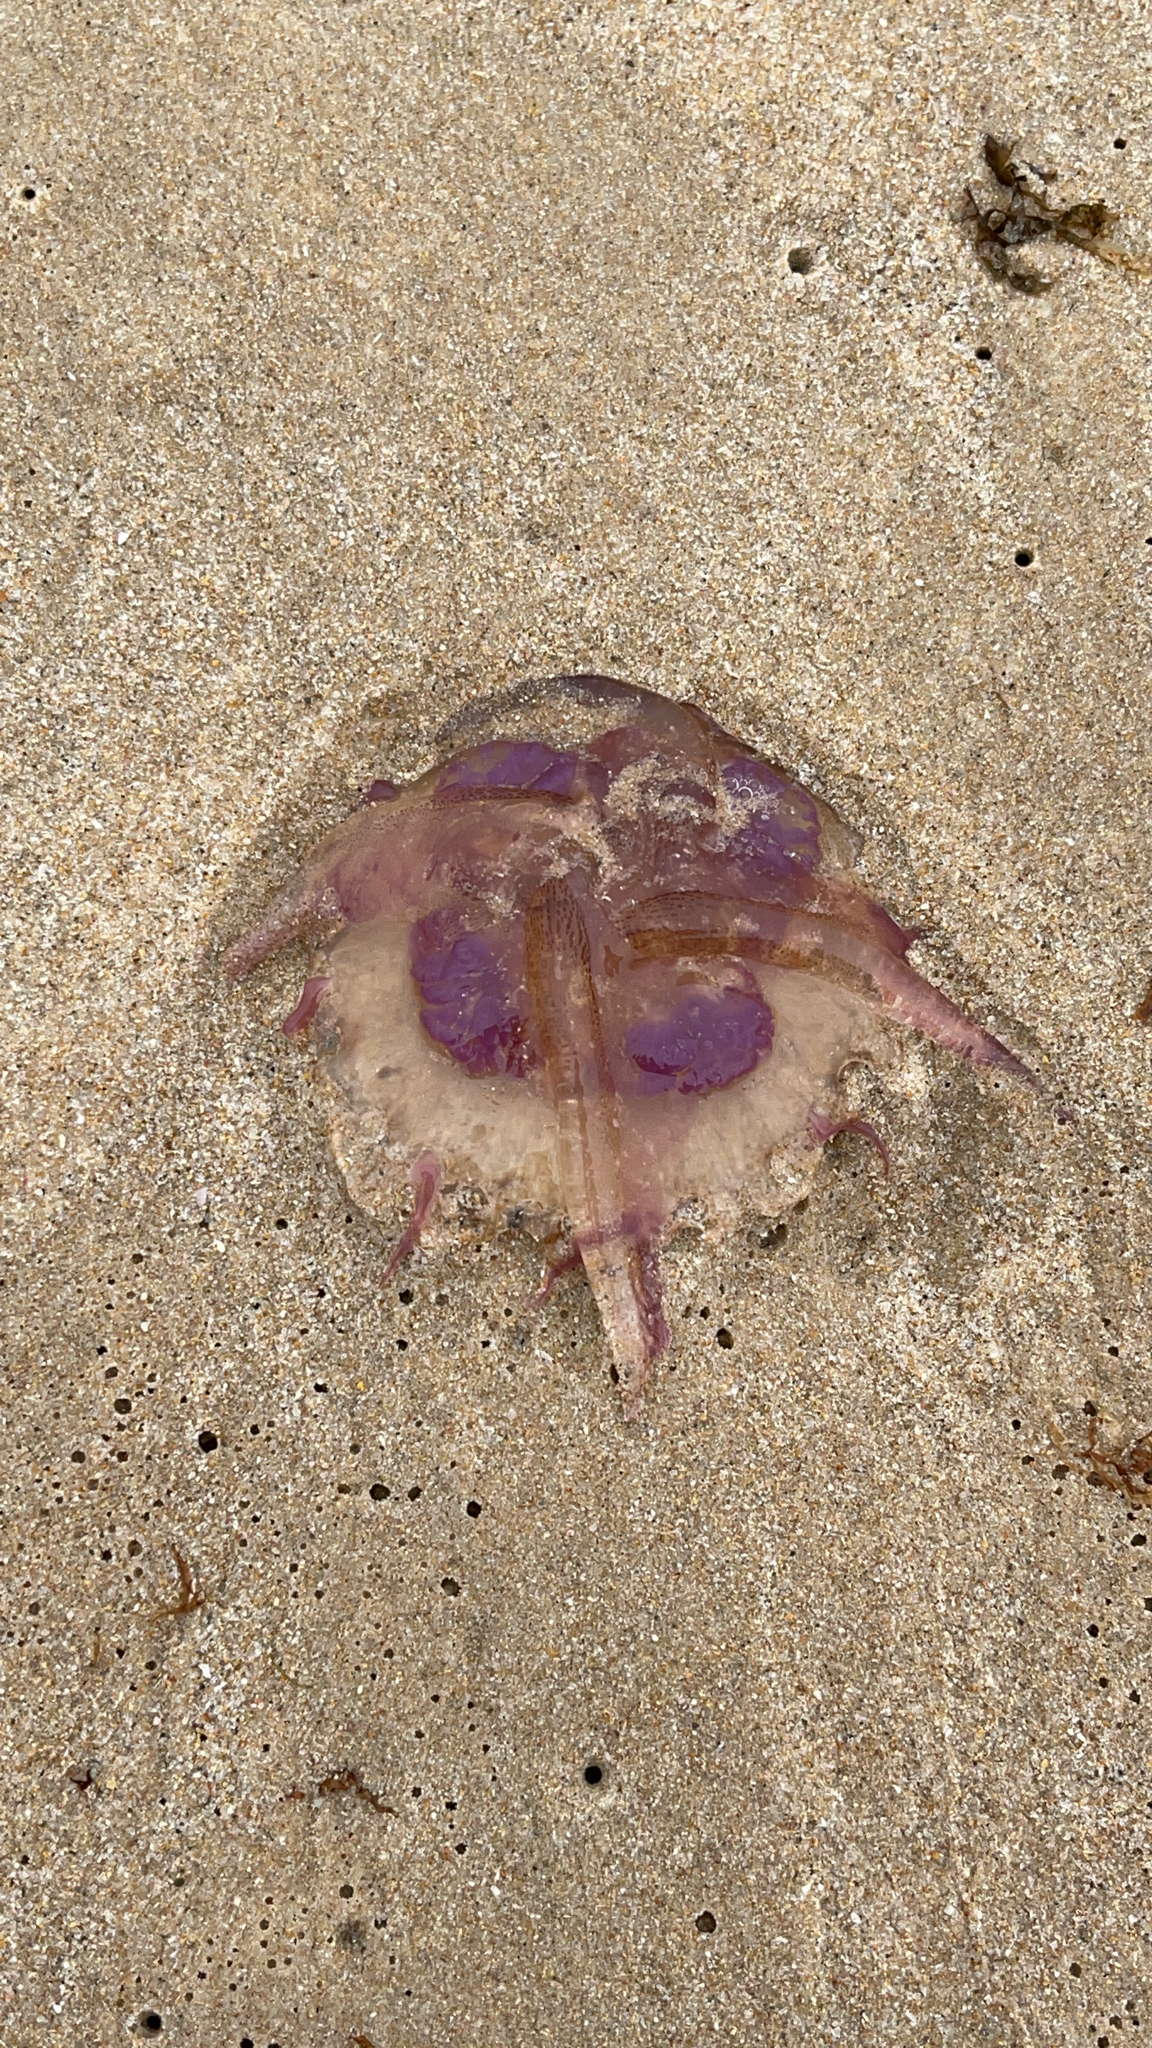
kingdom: Animalia
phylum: Cnidaria
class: Scyphozoa
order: Semaeostomeae
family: Pelagiidae
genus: Pelagia
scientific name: Pelagia noctiluca
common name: Mauve stinger
